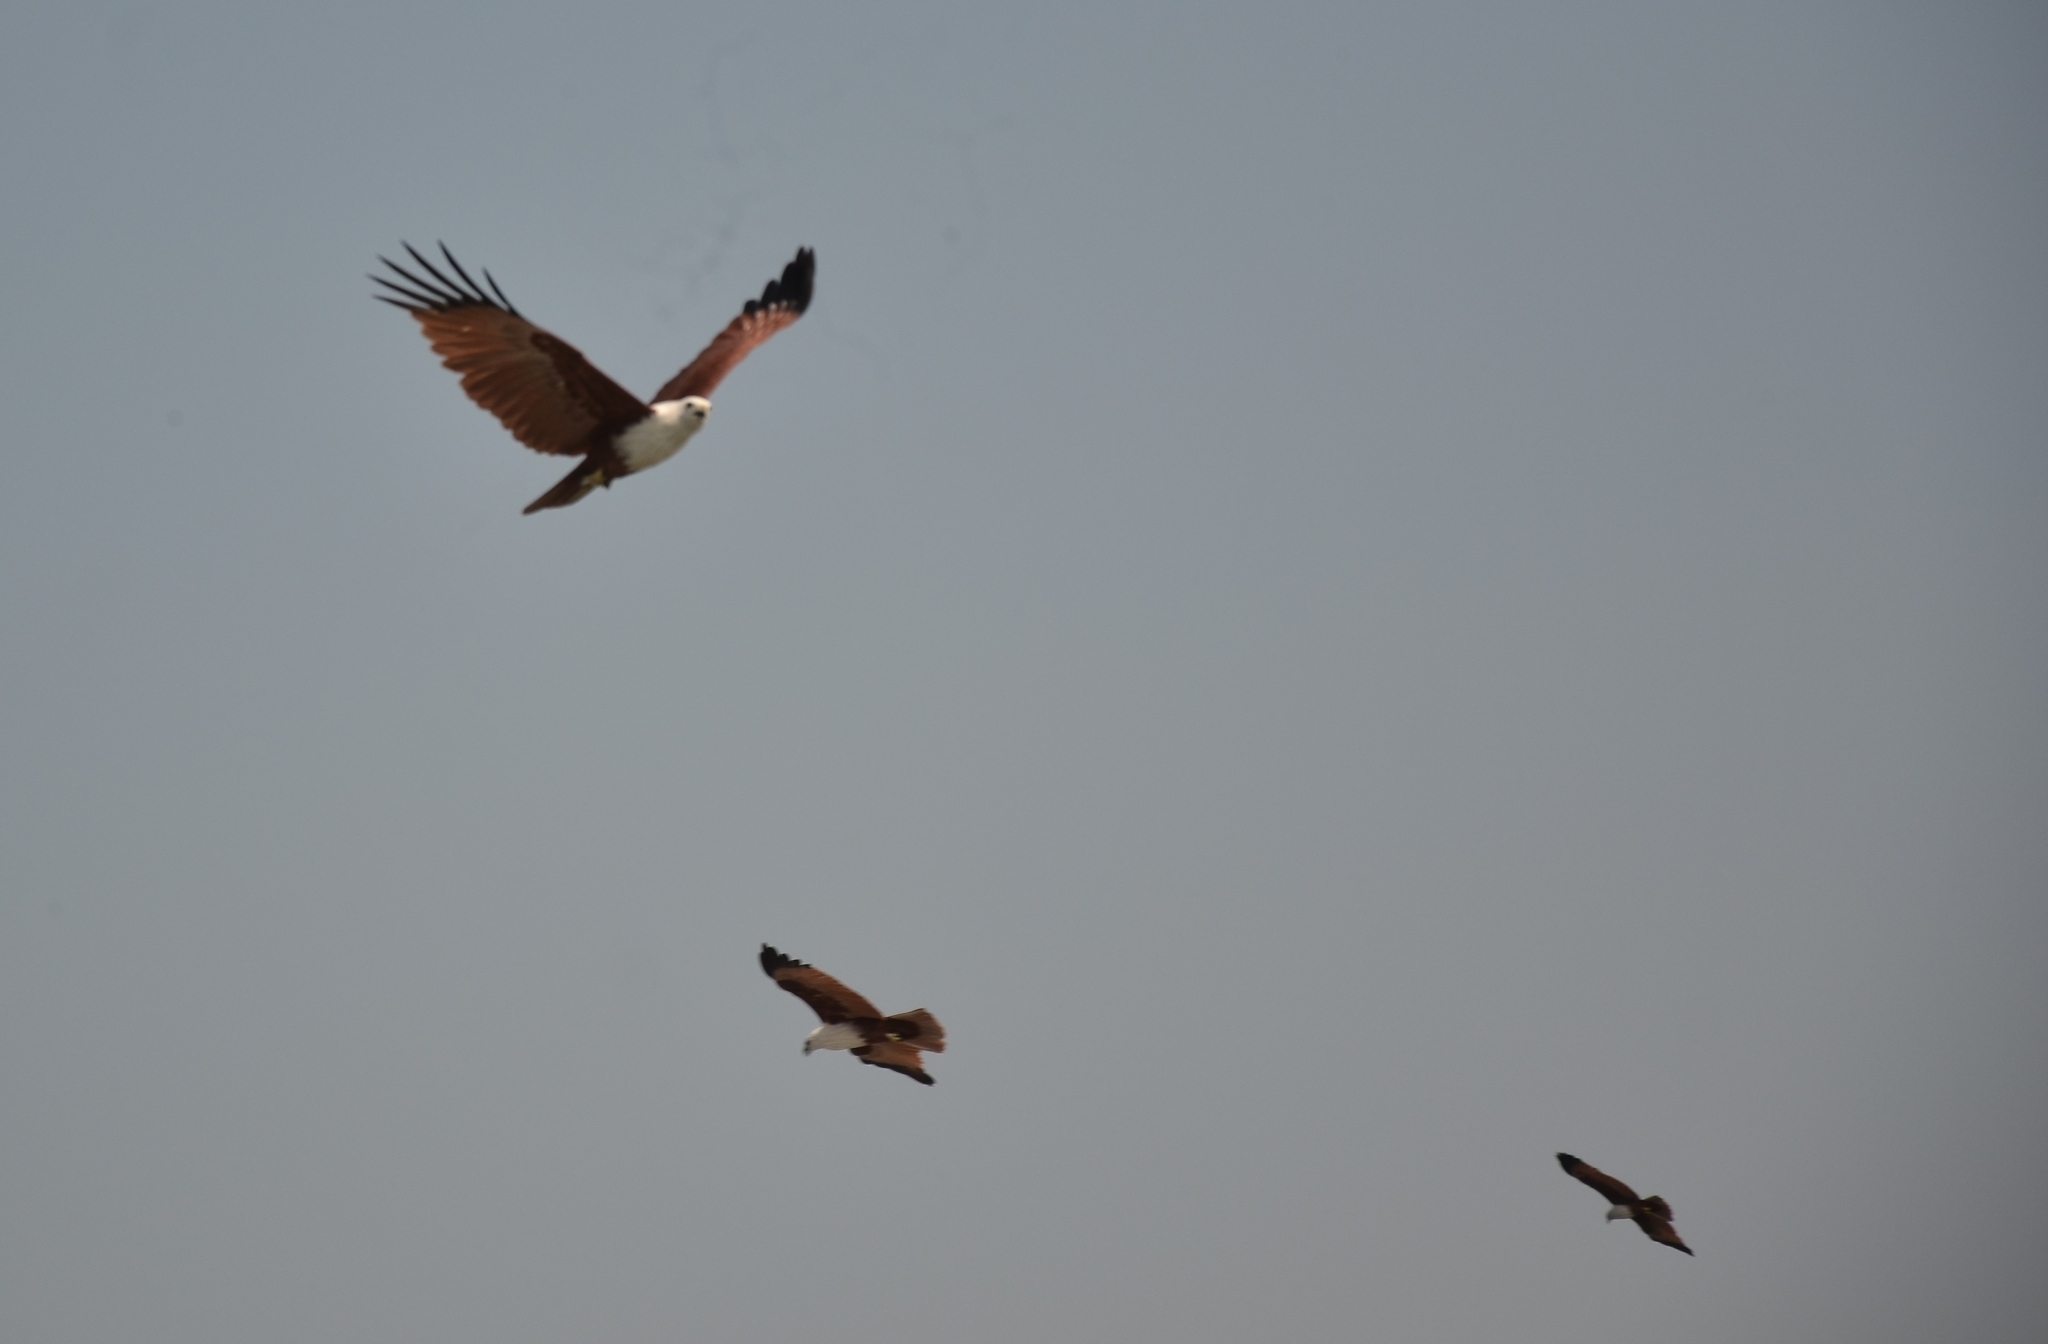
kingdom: Animalia
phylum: Chordata
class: Aves
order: Accipitriformes
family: Accipitridae
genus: Haliastur
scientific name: Haliastur indus
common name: Brahminy kite
